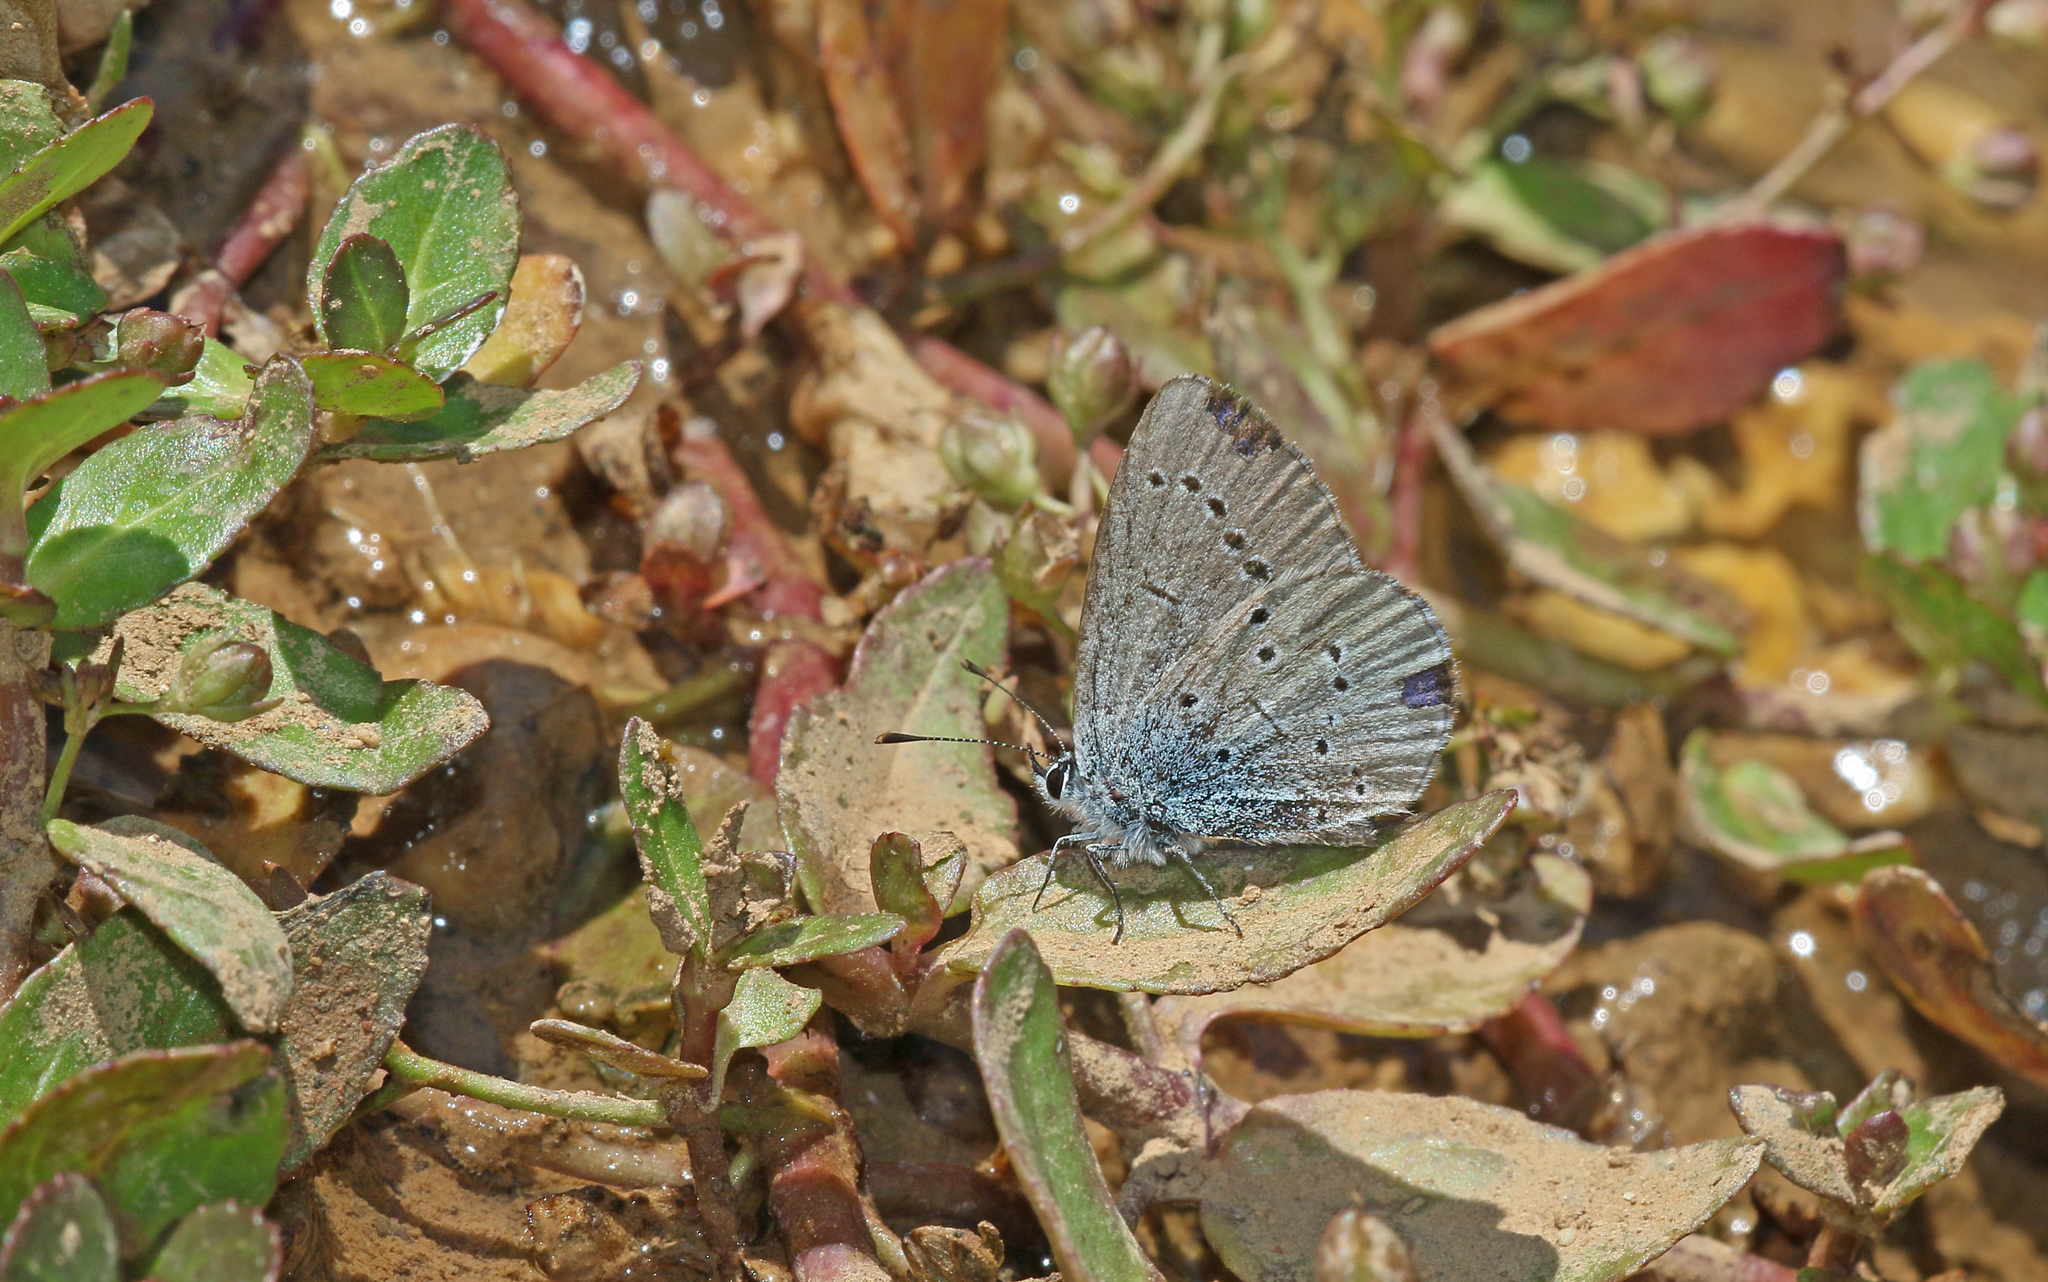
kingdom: Animalia
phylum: Arthropoda
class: Insecta
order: Lepidoptera
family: Lycaenidae
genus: Everes
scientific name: Everes sebrus
